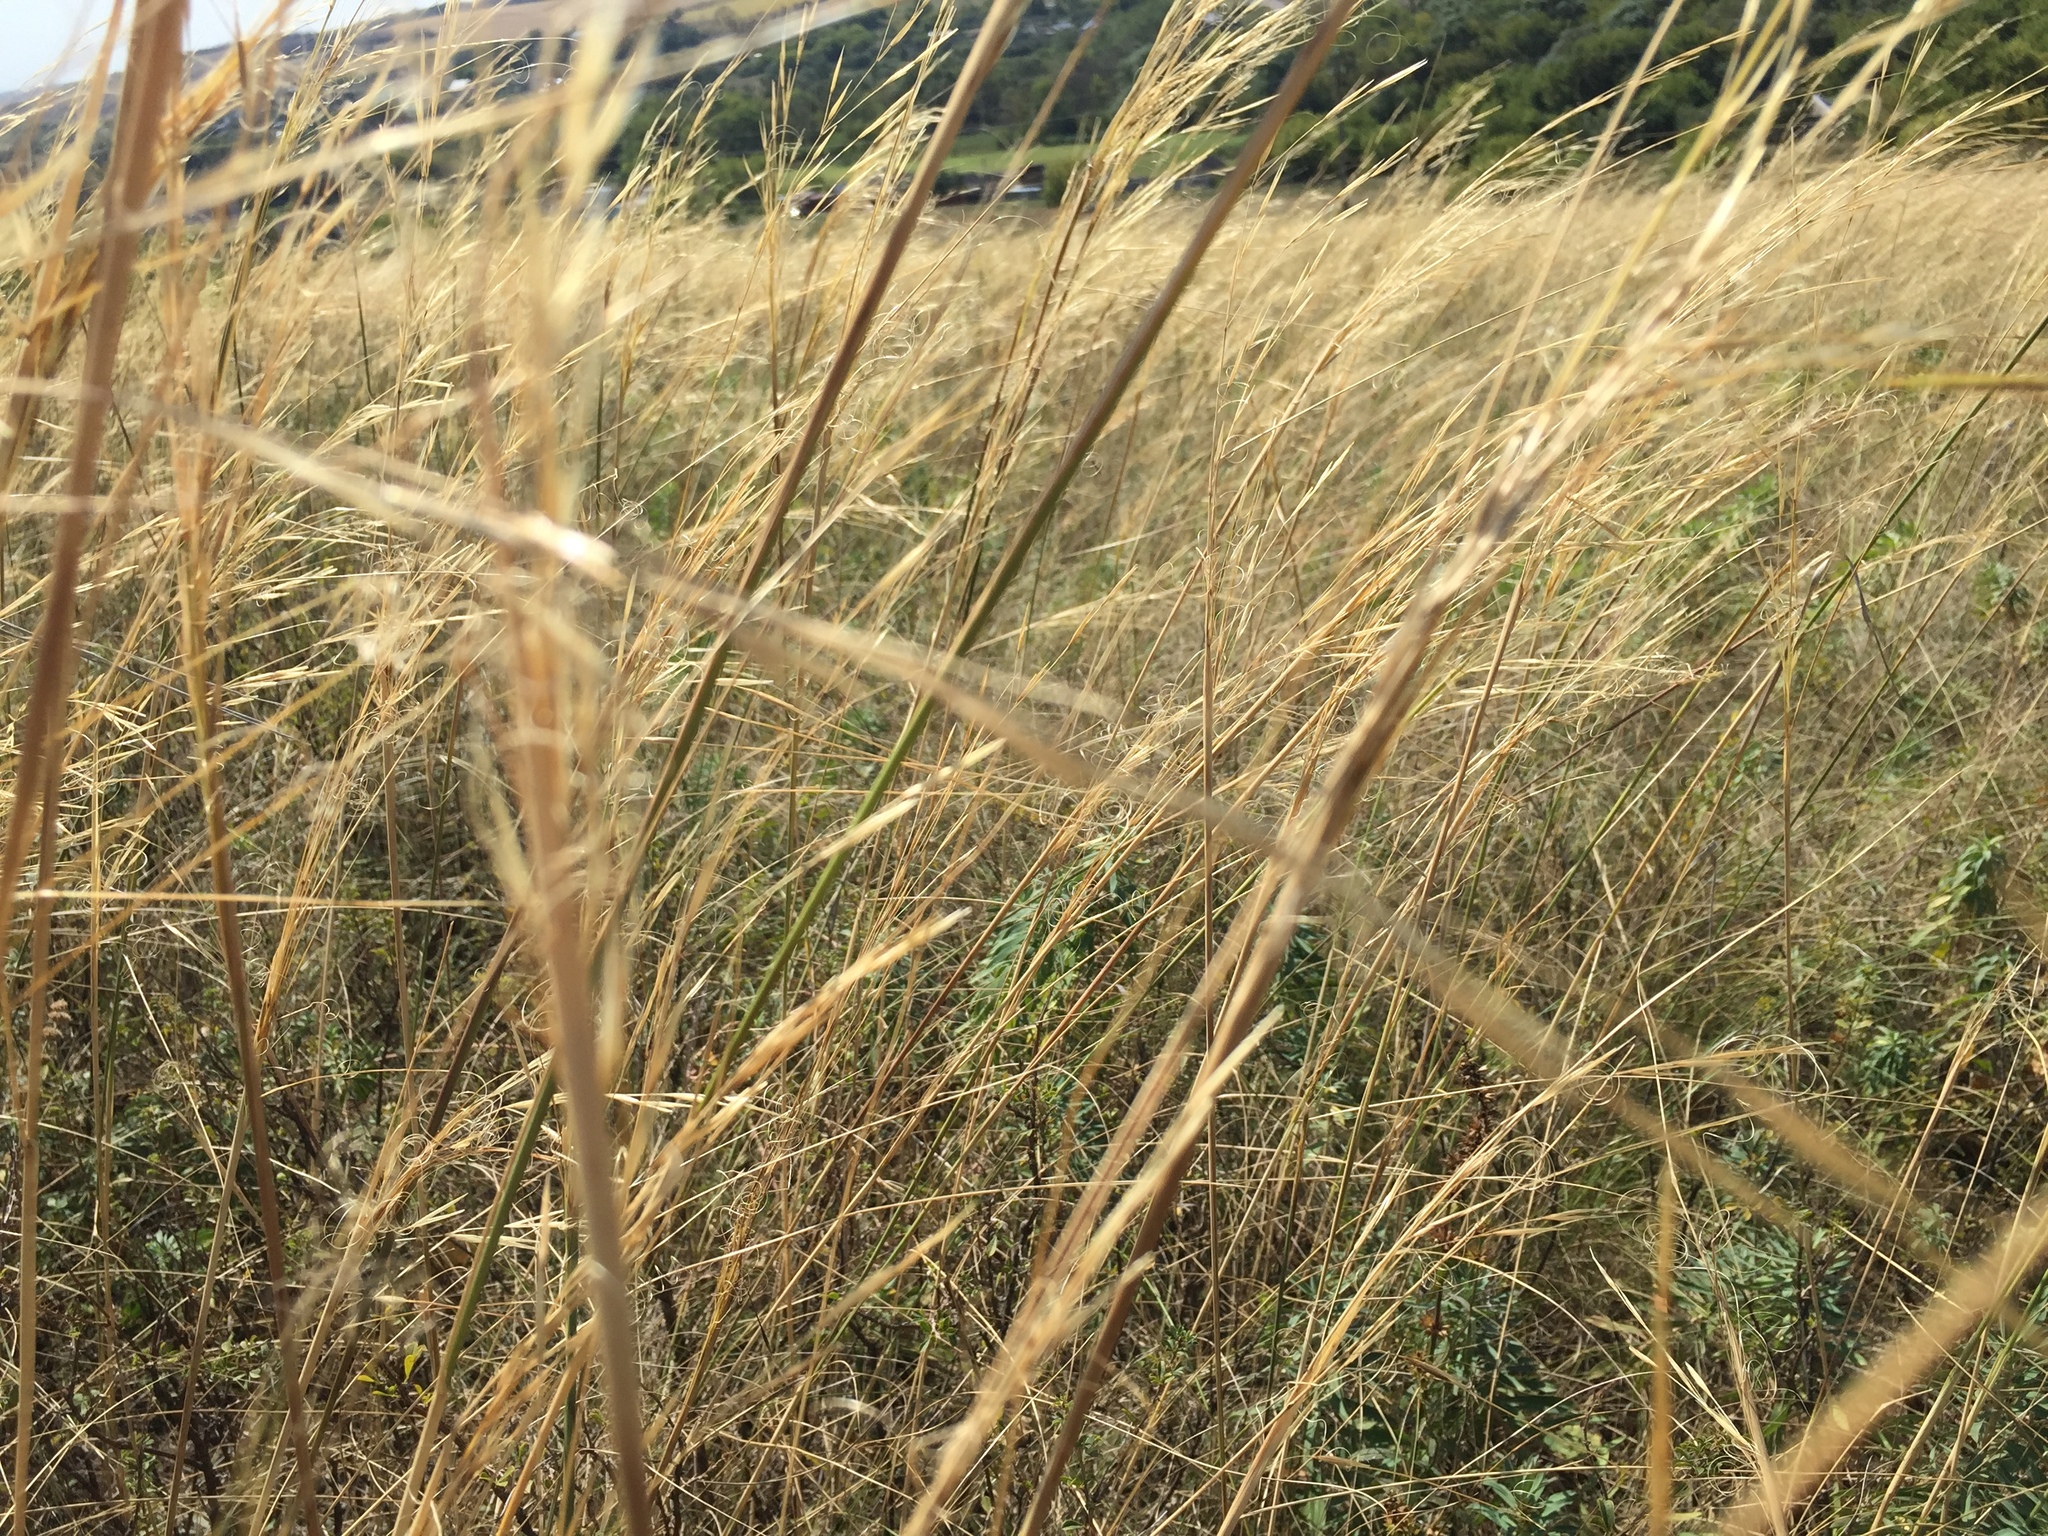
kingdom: Plantae
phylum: Tracheophyta
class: Liliopsida
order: Poales
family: Poaceae
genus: Stipa
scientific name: Stipa capillata
